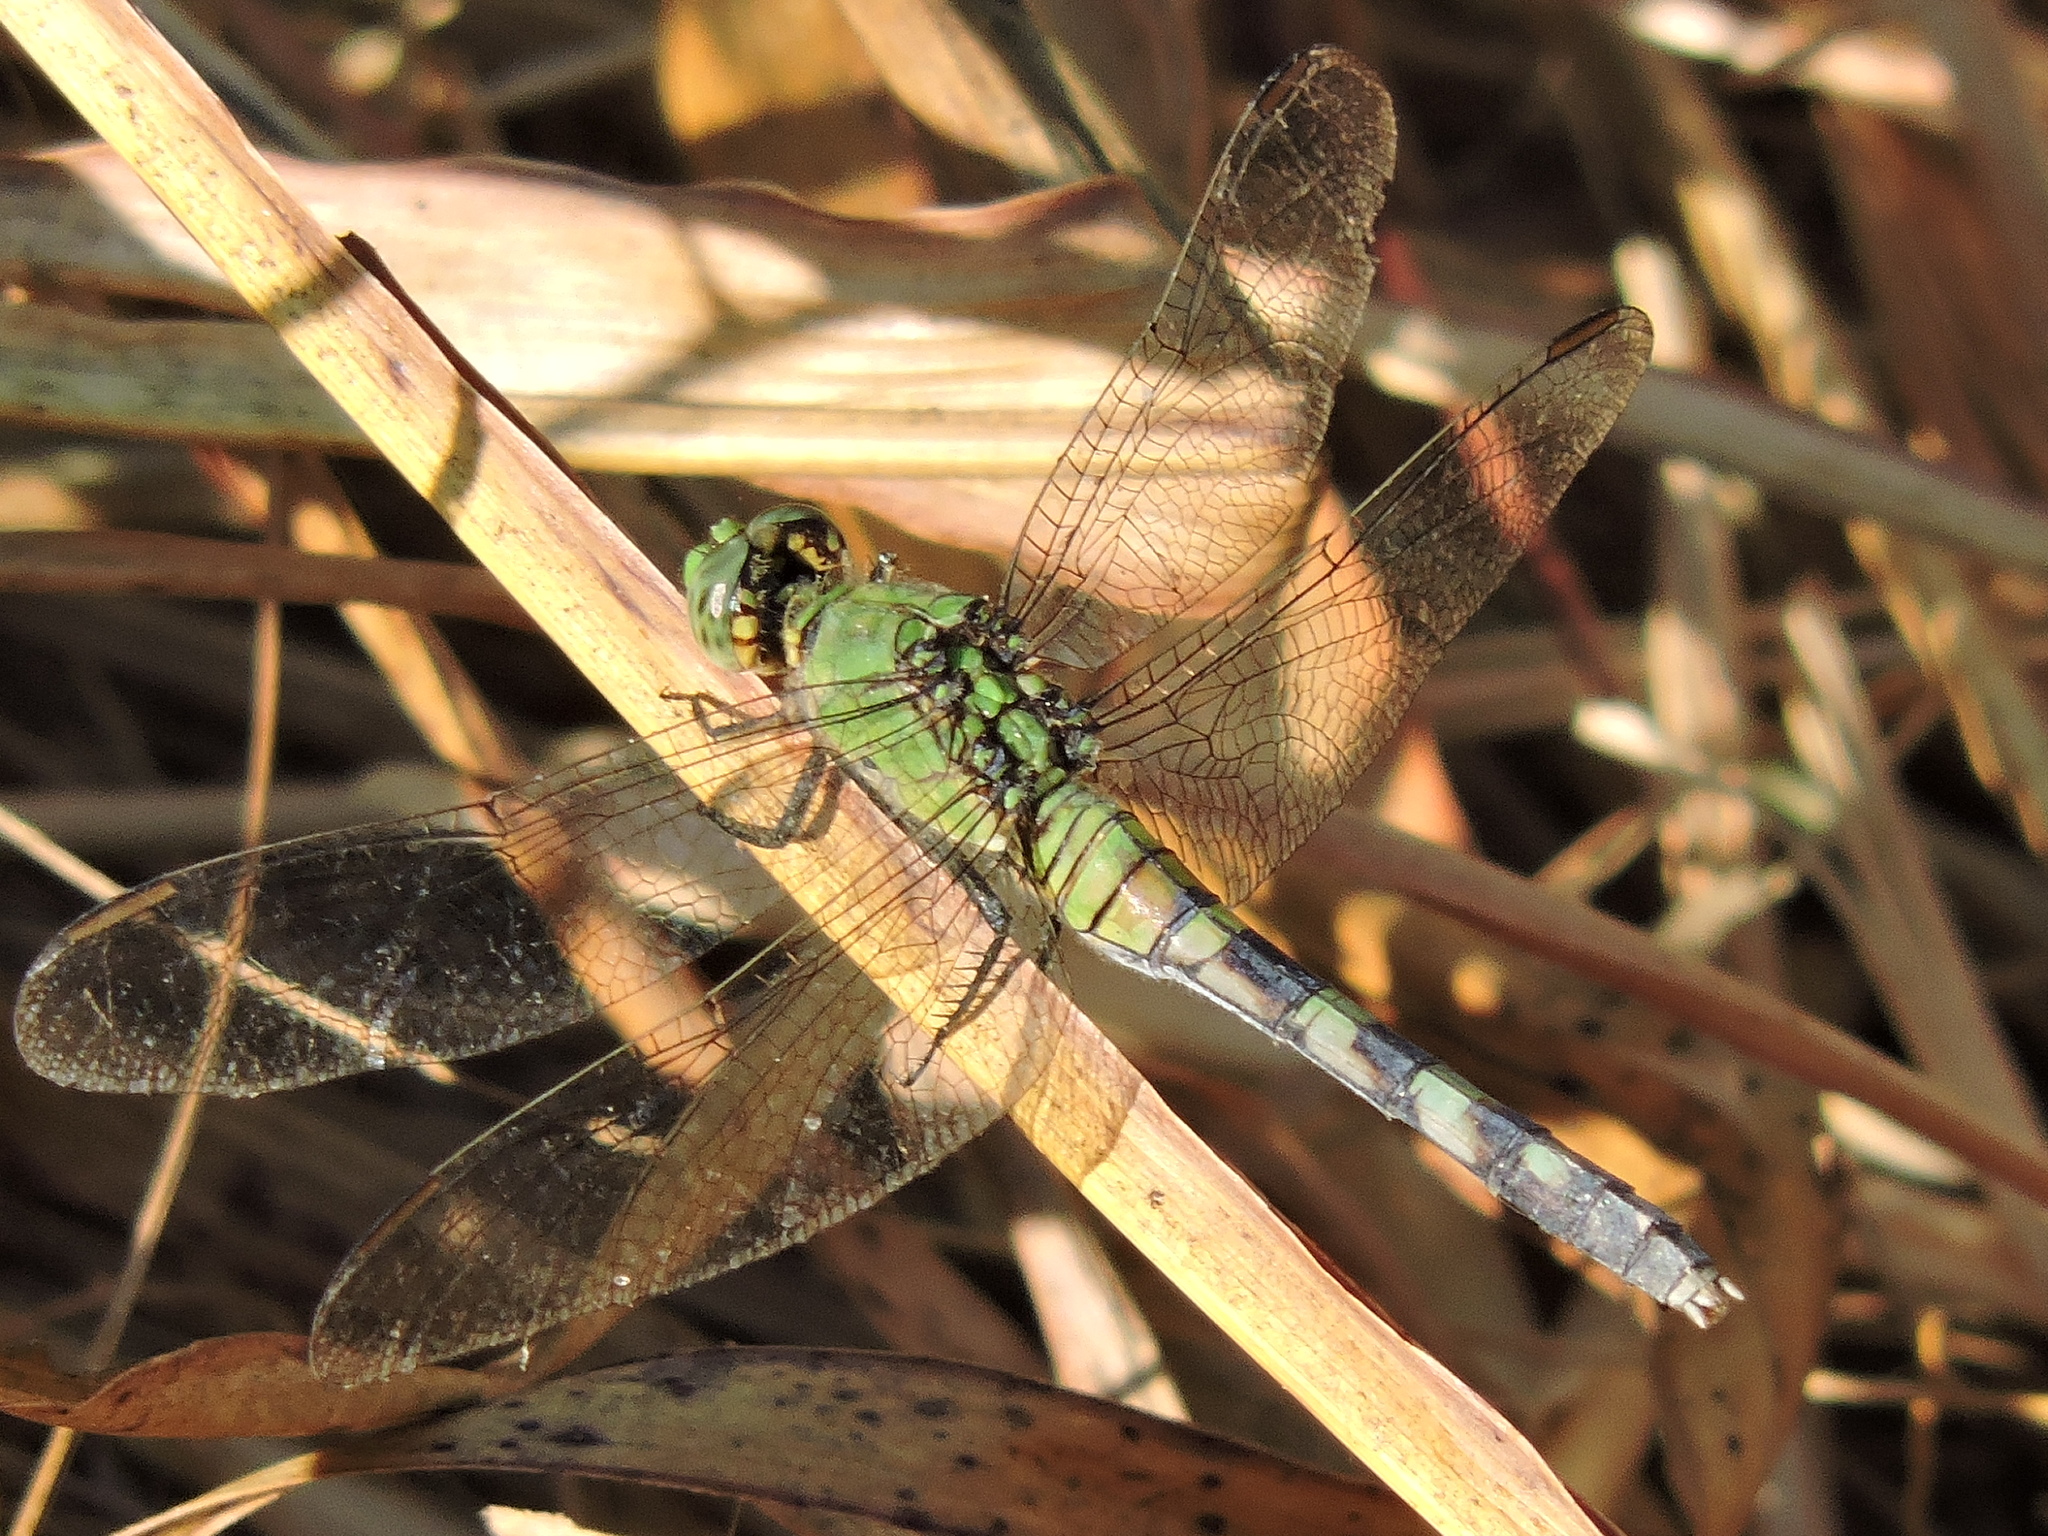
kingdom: Animalia
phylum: Arthropoda
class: Insecta
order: Odonata
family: Libellulidae
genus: Erythemis
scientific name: Erythemis simplicicollis
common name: Eastern pondhawk
